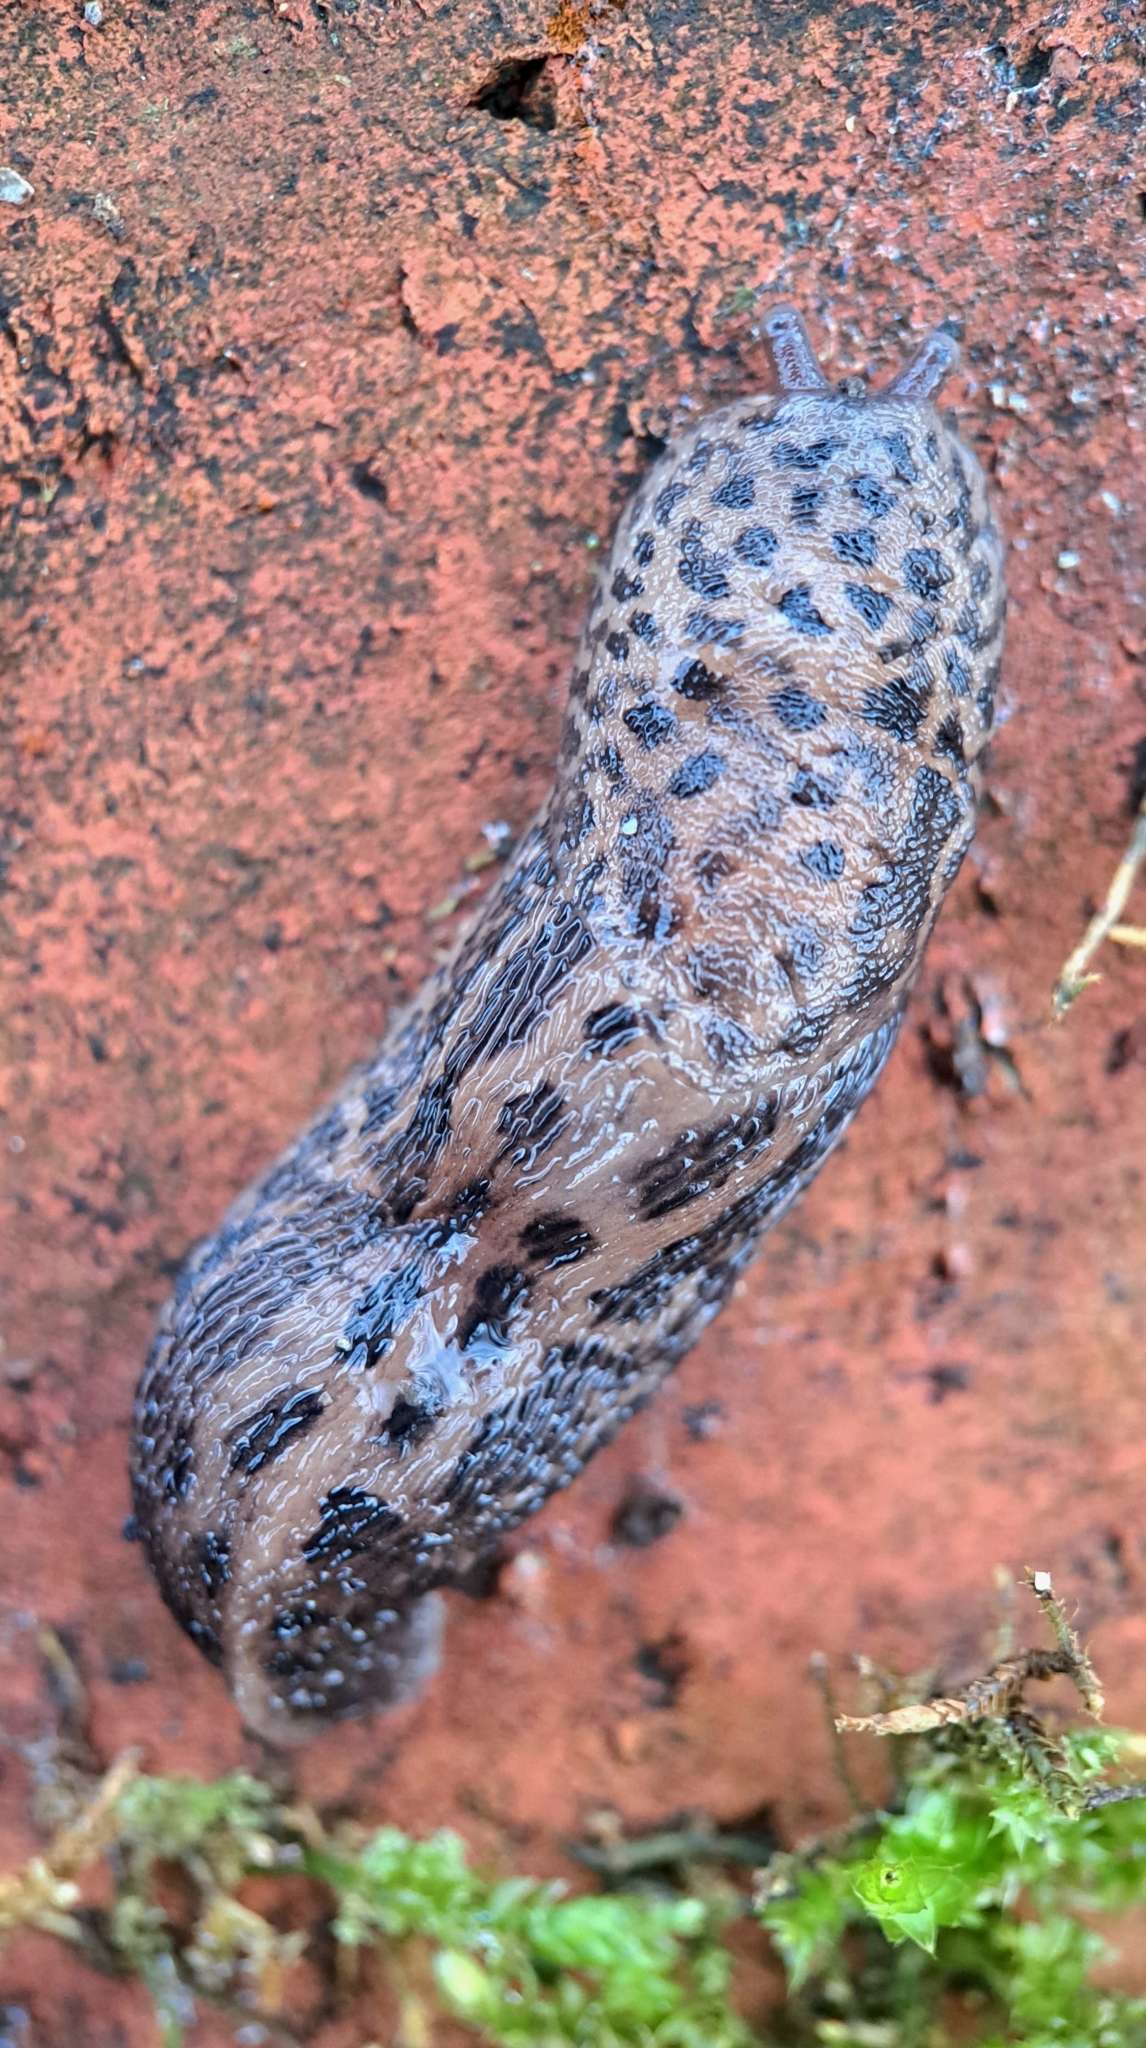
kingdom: Animalia
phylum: Mollusca
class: Gastropoda
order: Stylommatophora
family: Limacidae
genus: Limax
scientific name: Limax maximus
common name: Great grey slug
